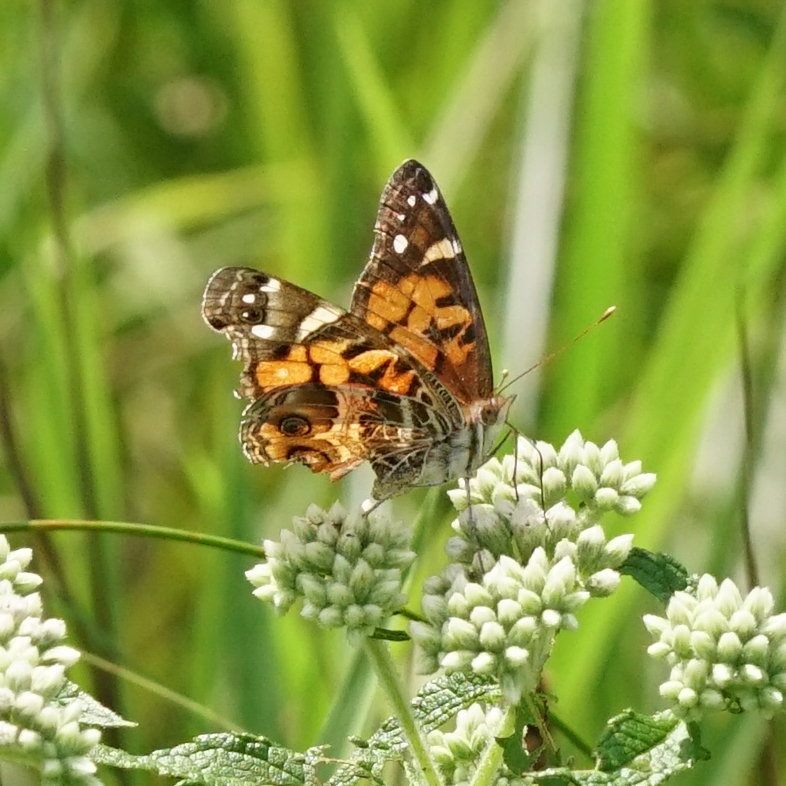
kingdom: Animalia
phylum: Arthropoda
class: Insecta
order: Lepidoptera
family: Nymphalidae
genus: Vanessa
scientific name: Vanessa virginiensis
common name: American lady
